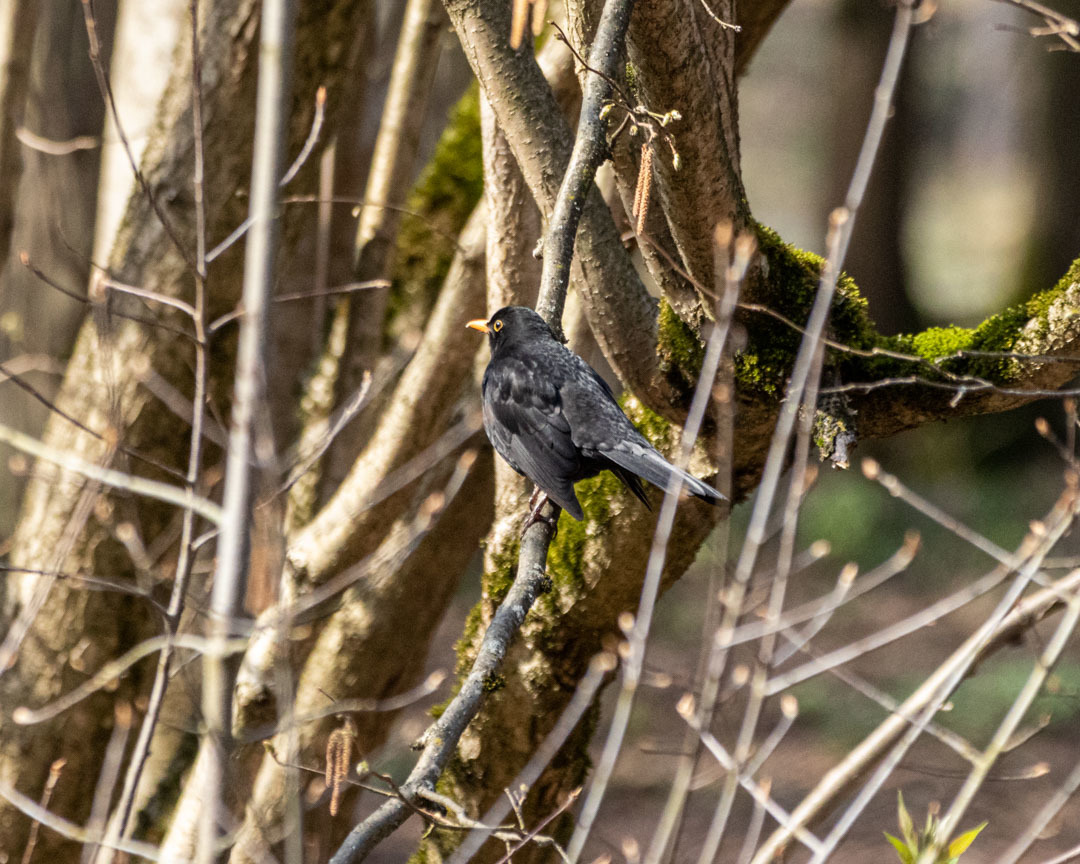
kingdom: Animalia
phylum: Chordata
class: Aves
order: Passeriformes
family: Turdidae
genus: Turdus
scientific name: Turdus merula
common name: Common blackbird
